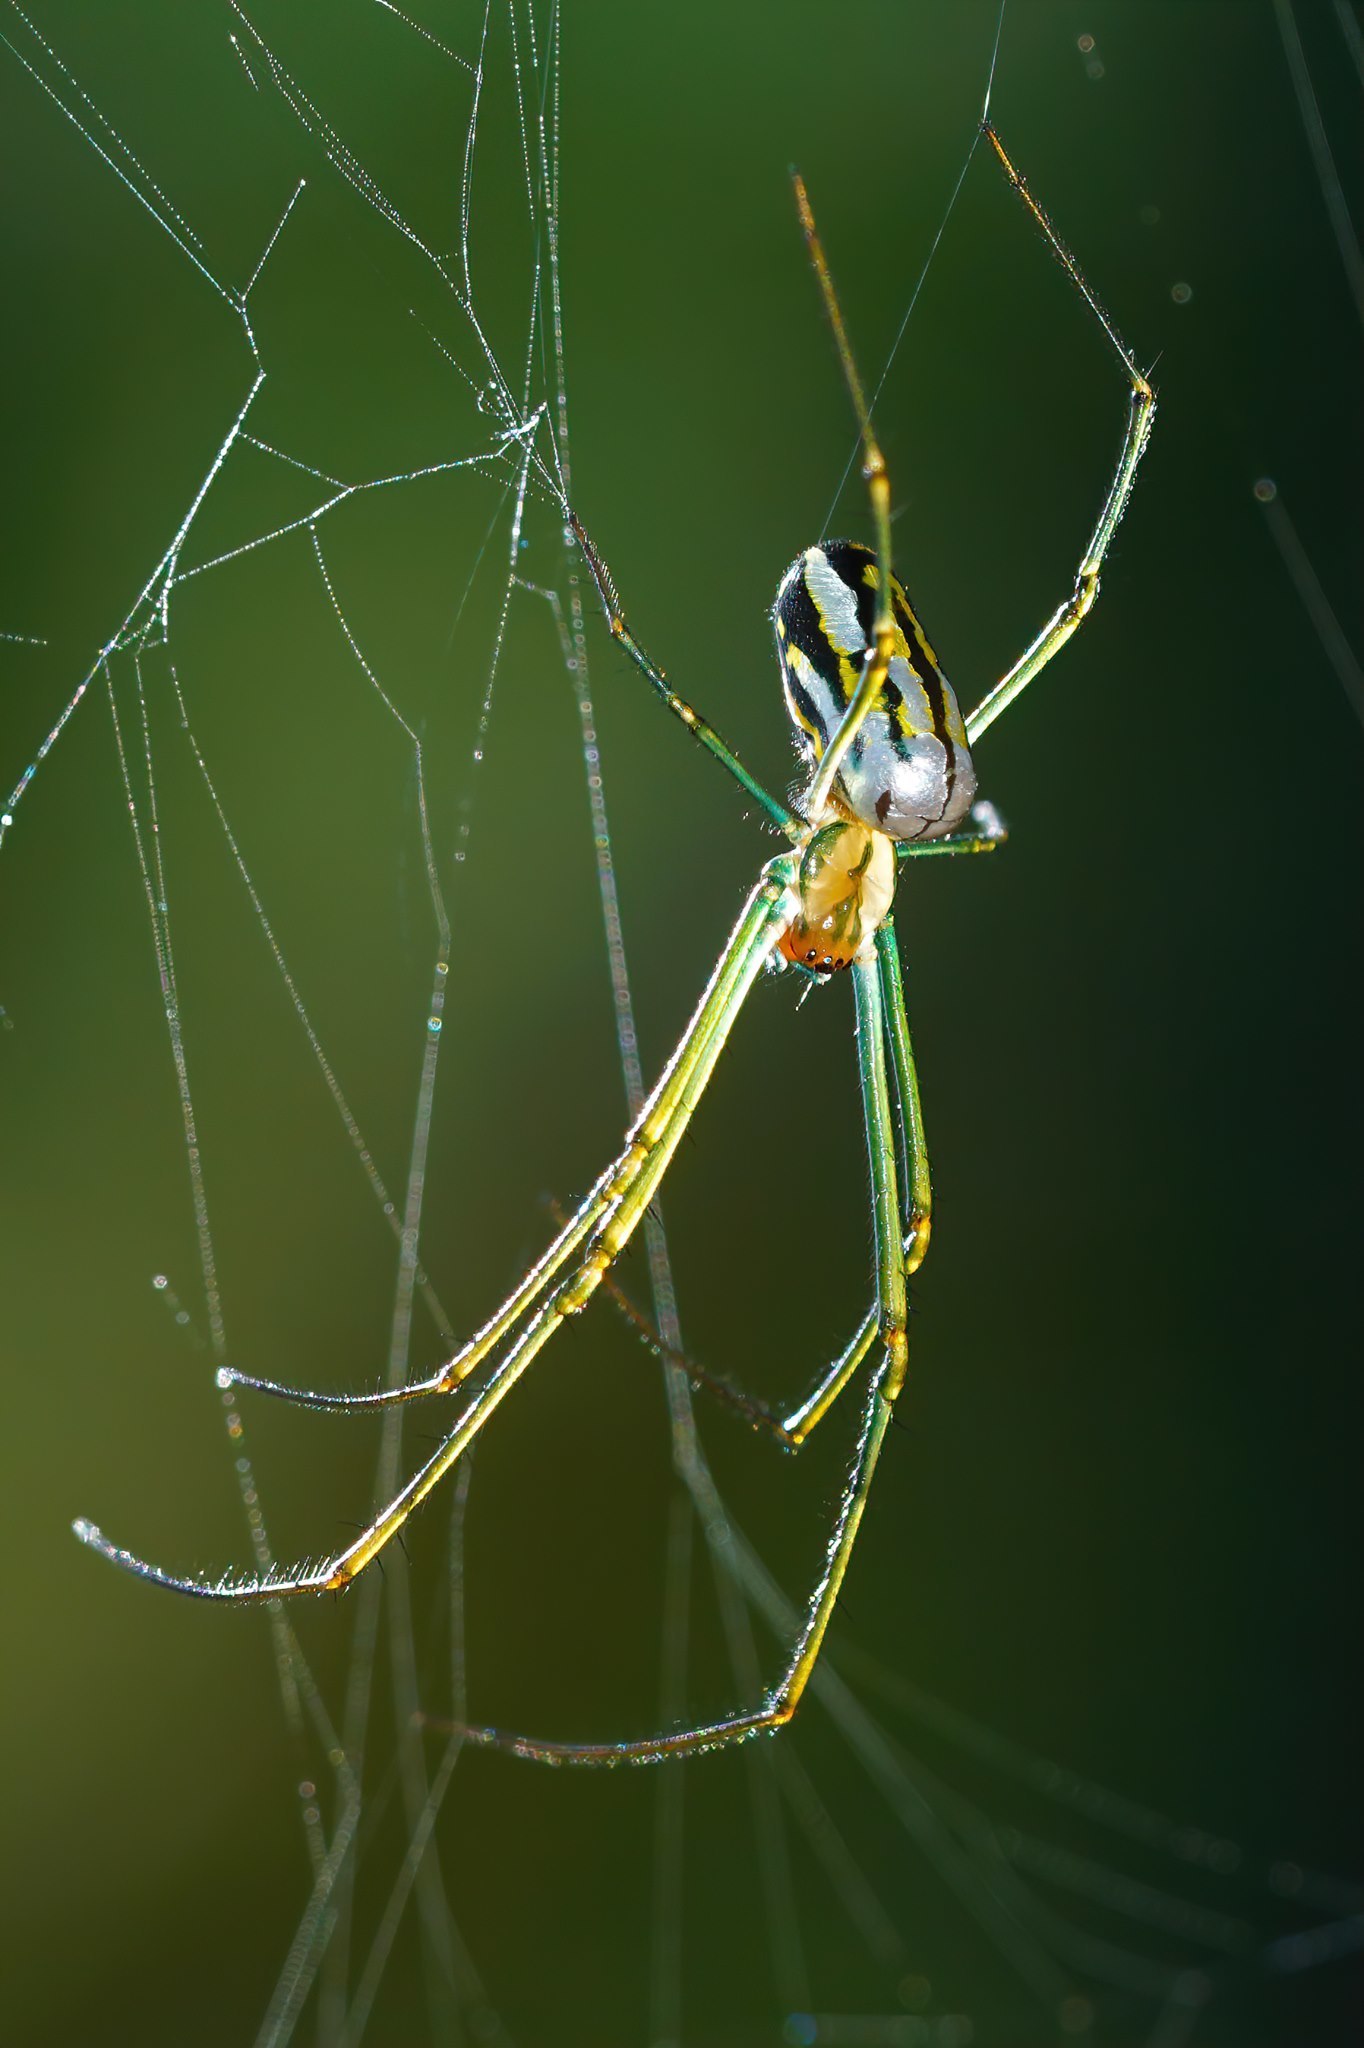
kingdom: Animalia
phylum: Arthropoda
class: Arachnida
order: Araneae
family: Tetragnathidae
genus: Leucauge
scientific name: Leucauge argyra
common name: Longjawed orb weavers
